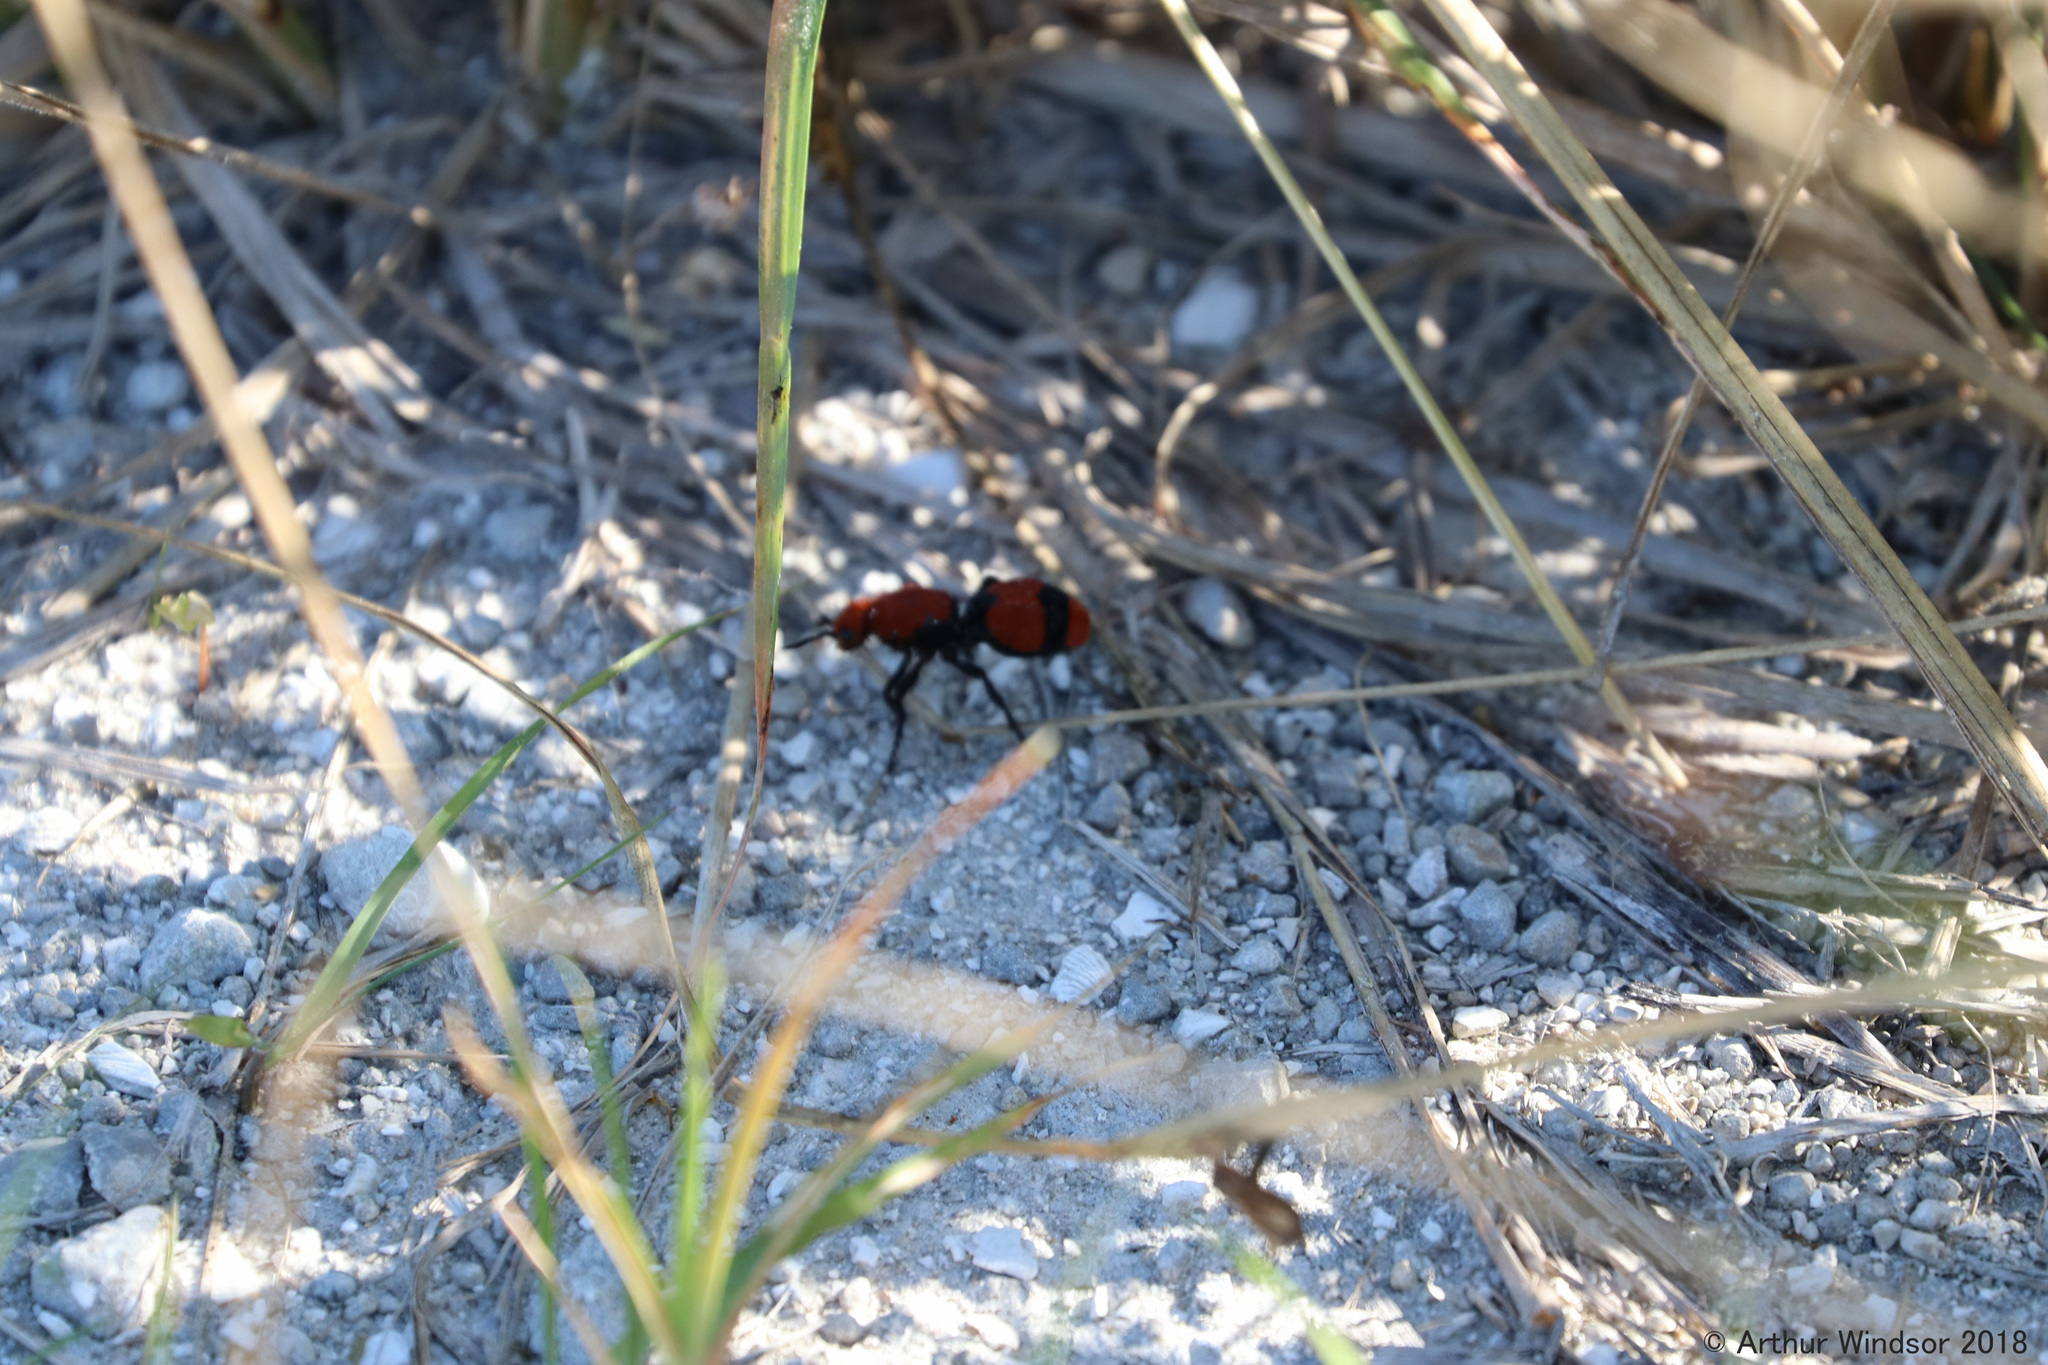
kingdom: Animalia
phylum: Arthropoda
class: Insecta
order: Hymenoptera
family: Mutillidae
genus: Dasymutilla
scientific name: Dasymutilla occidentalis
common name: Common eastern velvet ant
